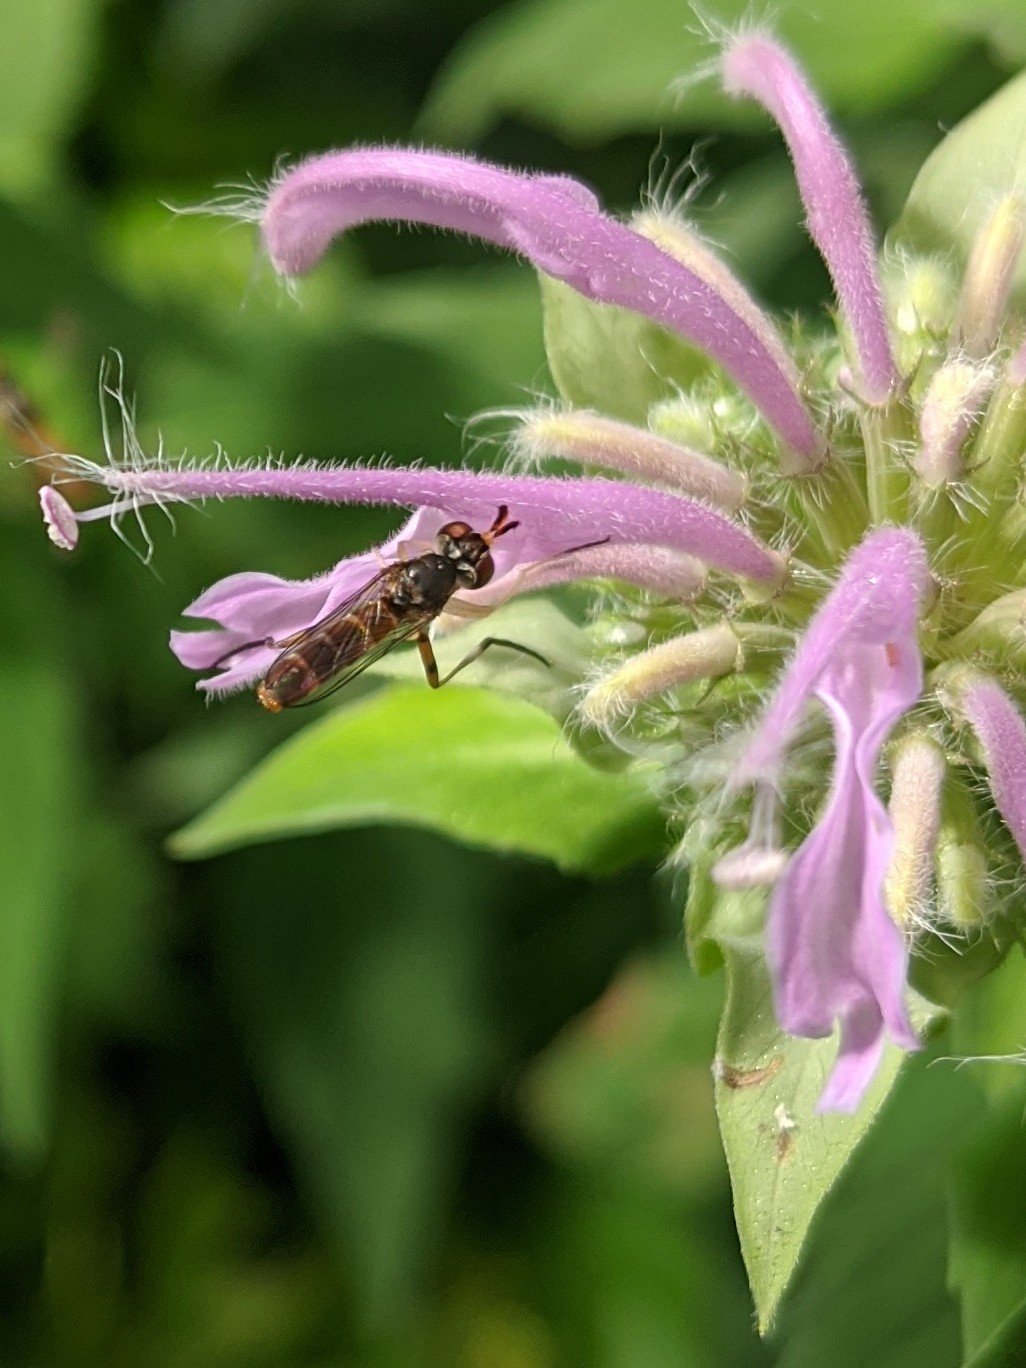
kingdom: Animalia
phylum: Arthropoda
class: Insecta
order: Diptera
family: Conopidae
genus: Stylogaster
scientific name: Stylogaster neglecta
